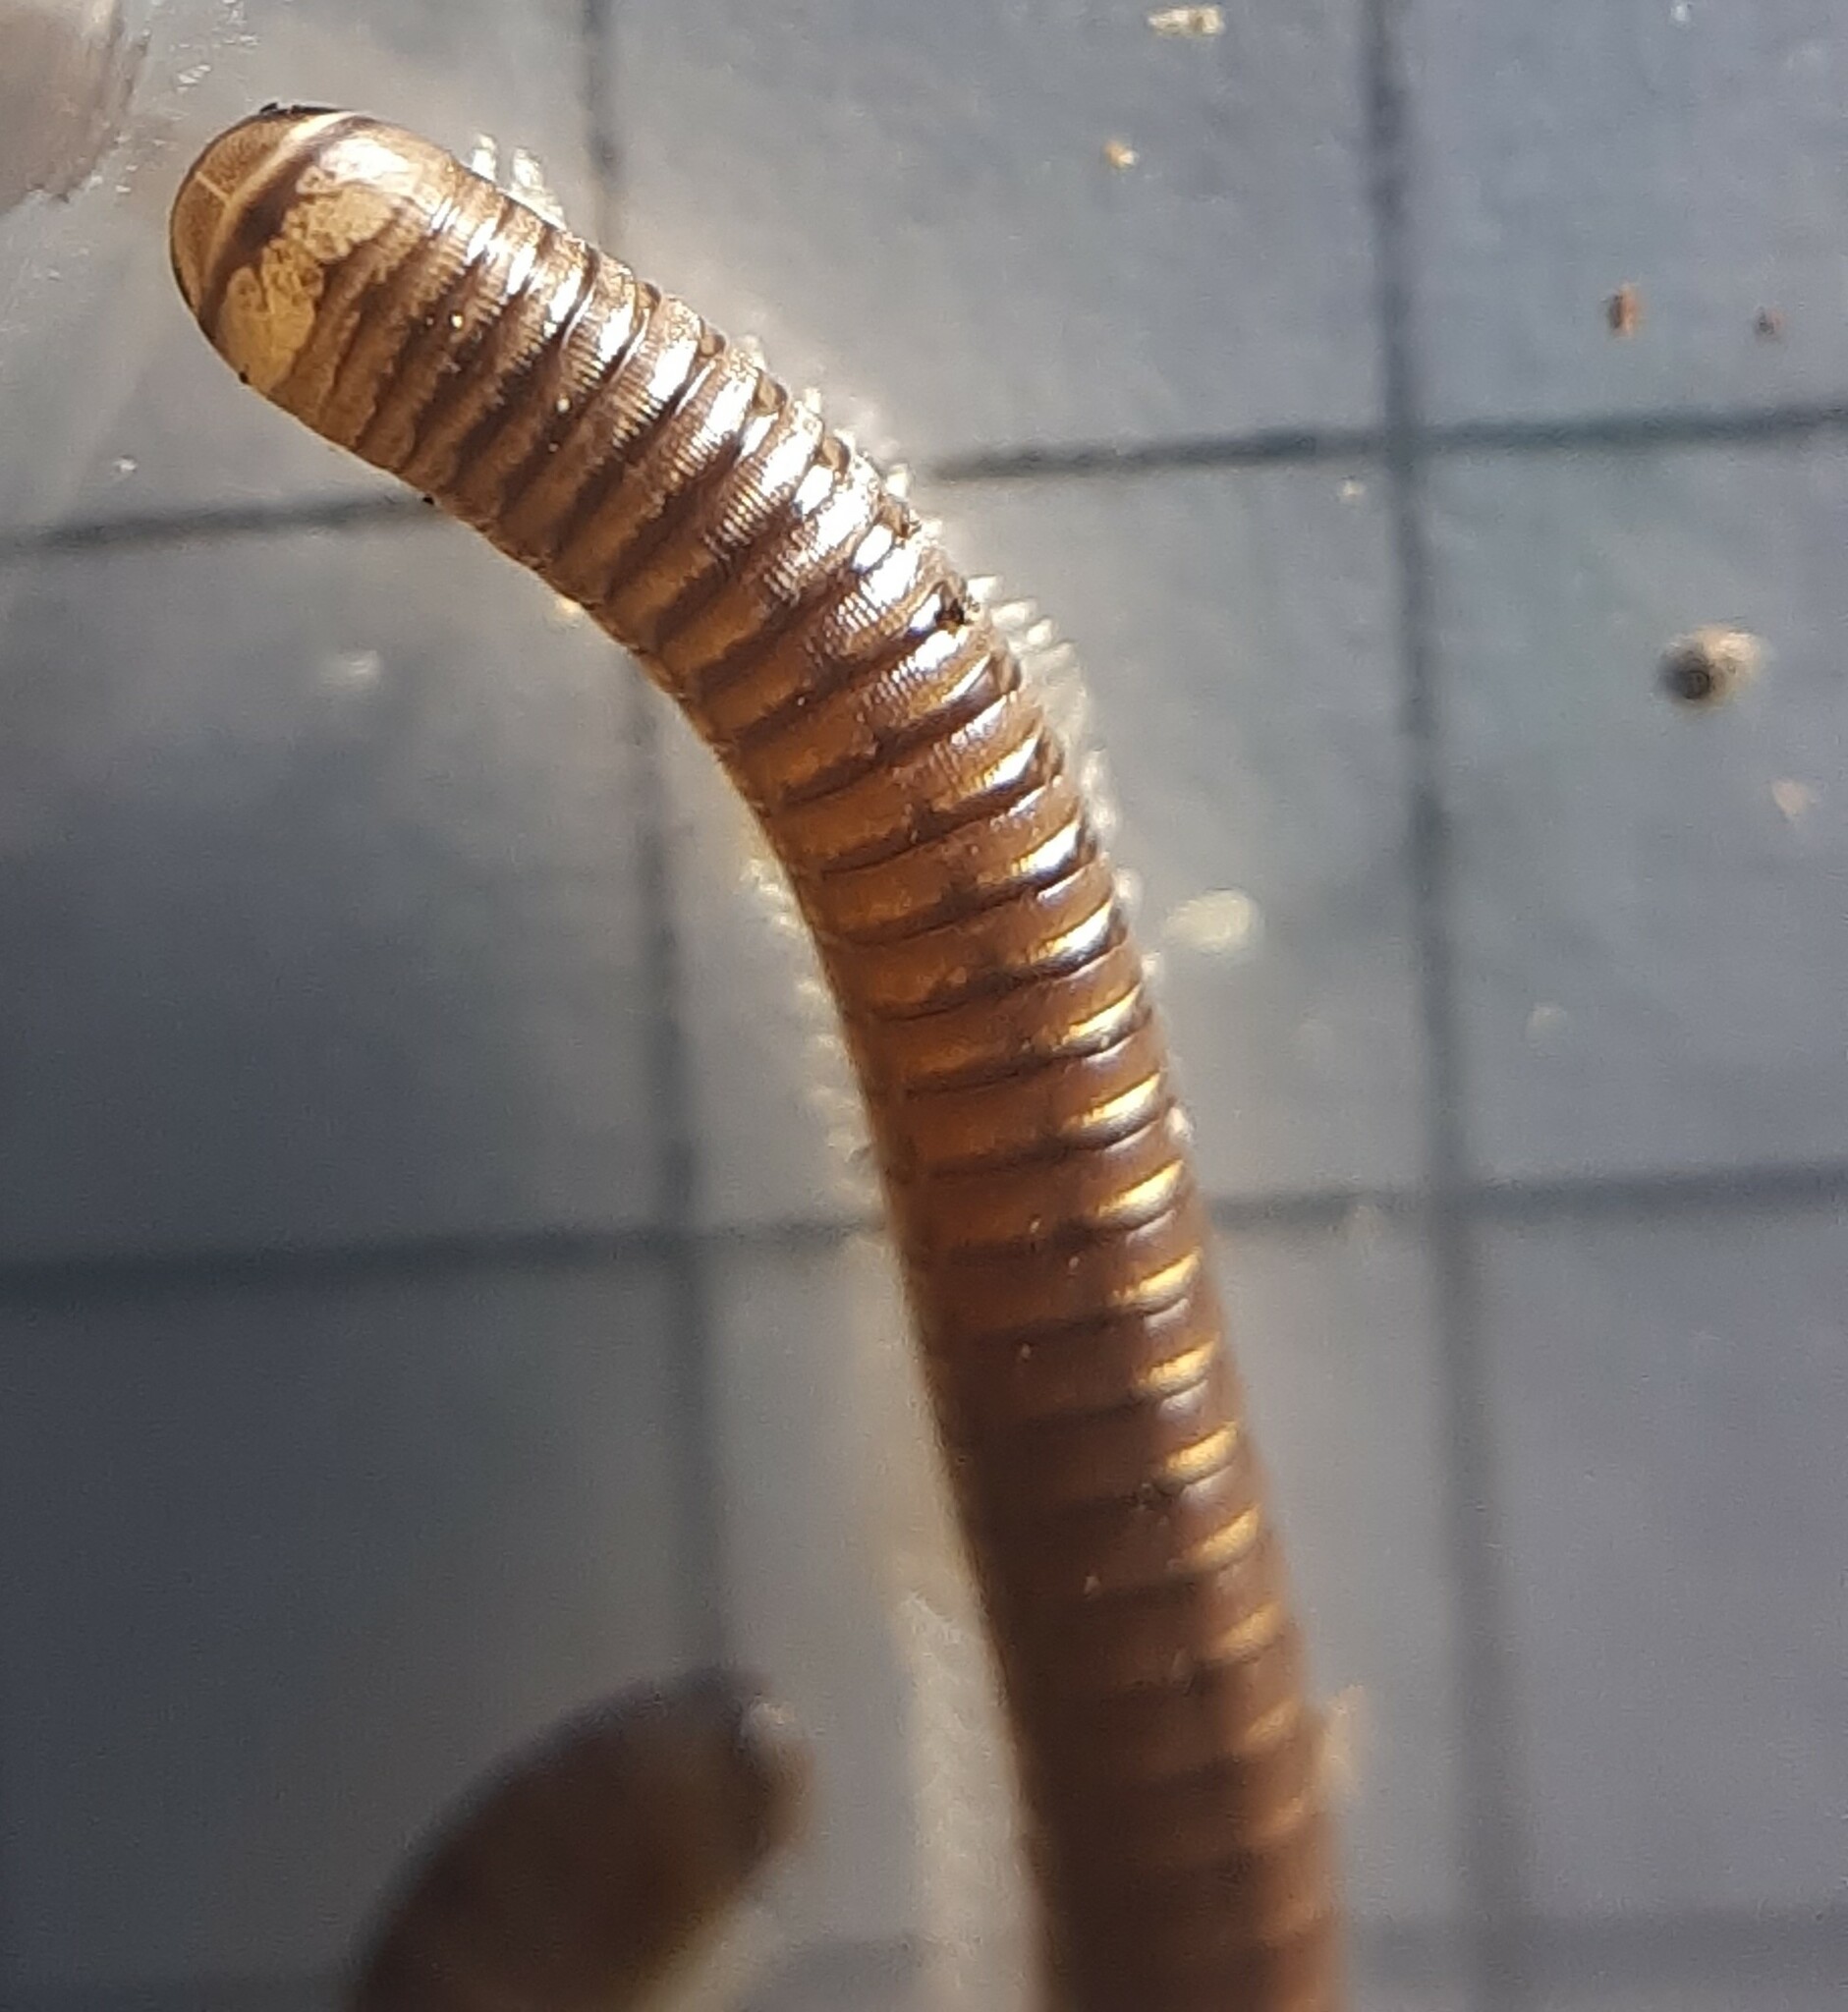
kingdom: Animalia
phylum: Arthropoda
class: Diplopoda
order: Julida
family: Julidae
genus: Cylindroiulus
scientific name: Cylindroiulus latzeli
